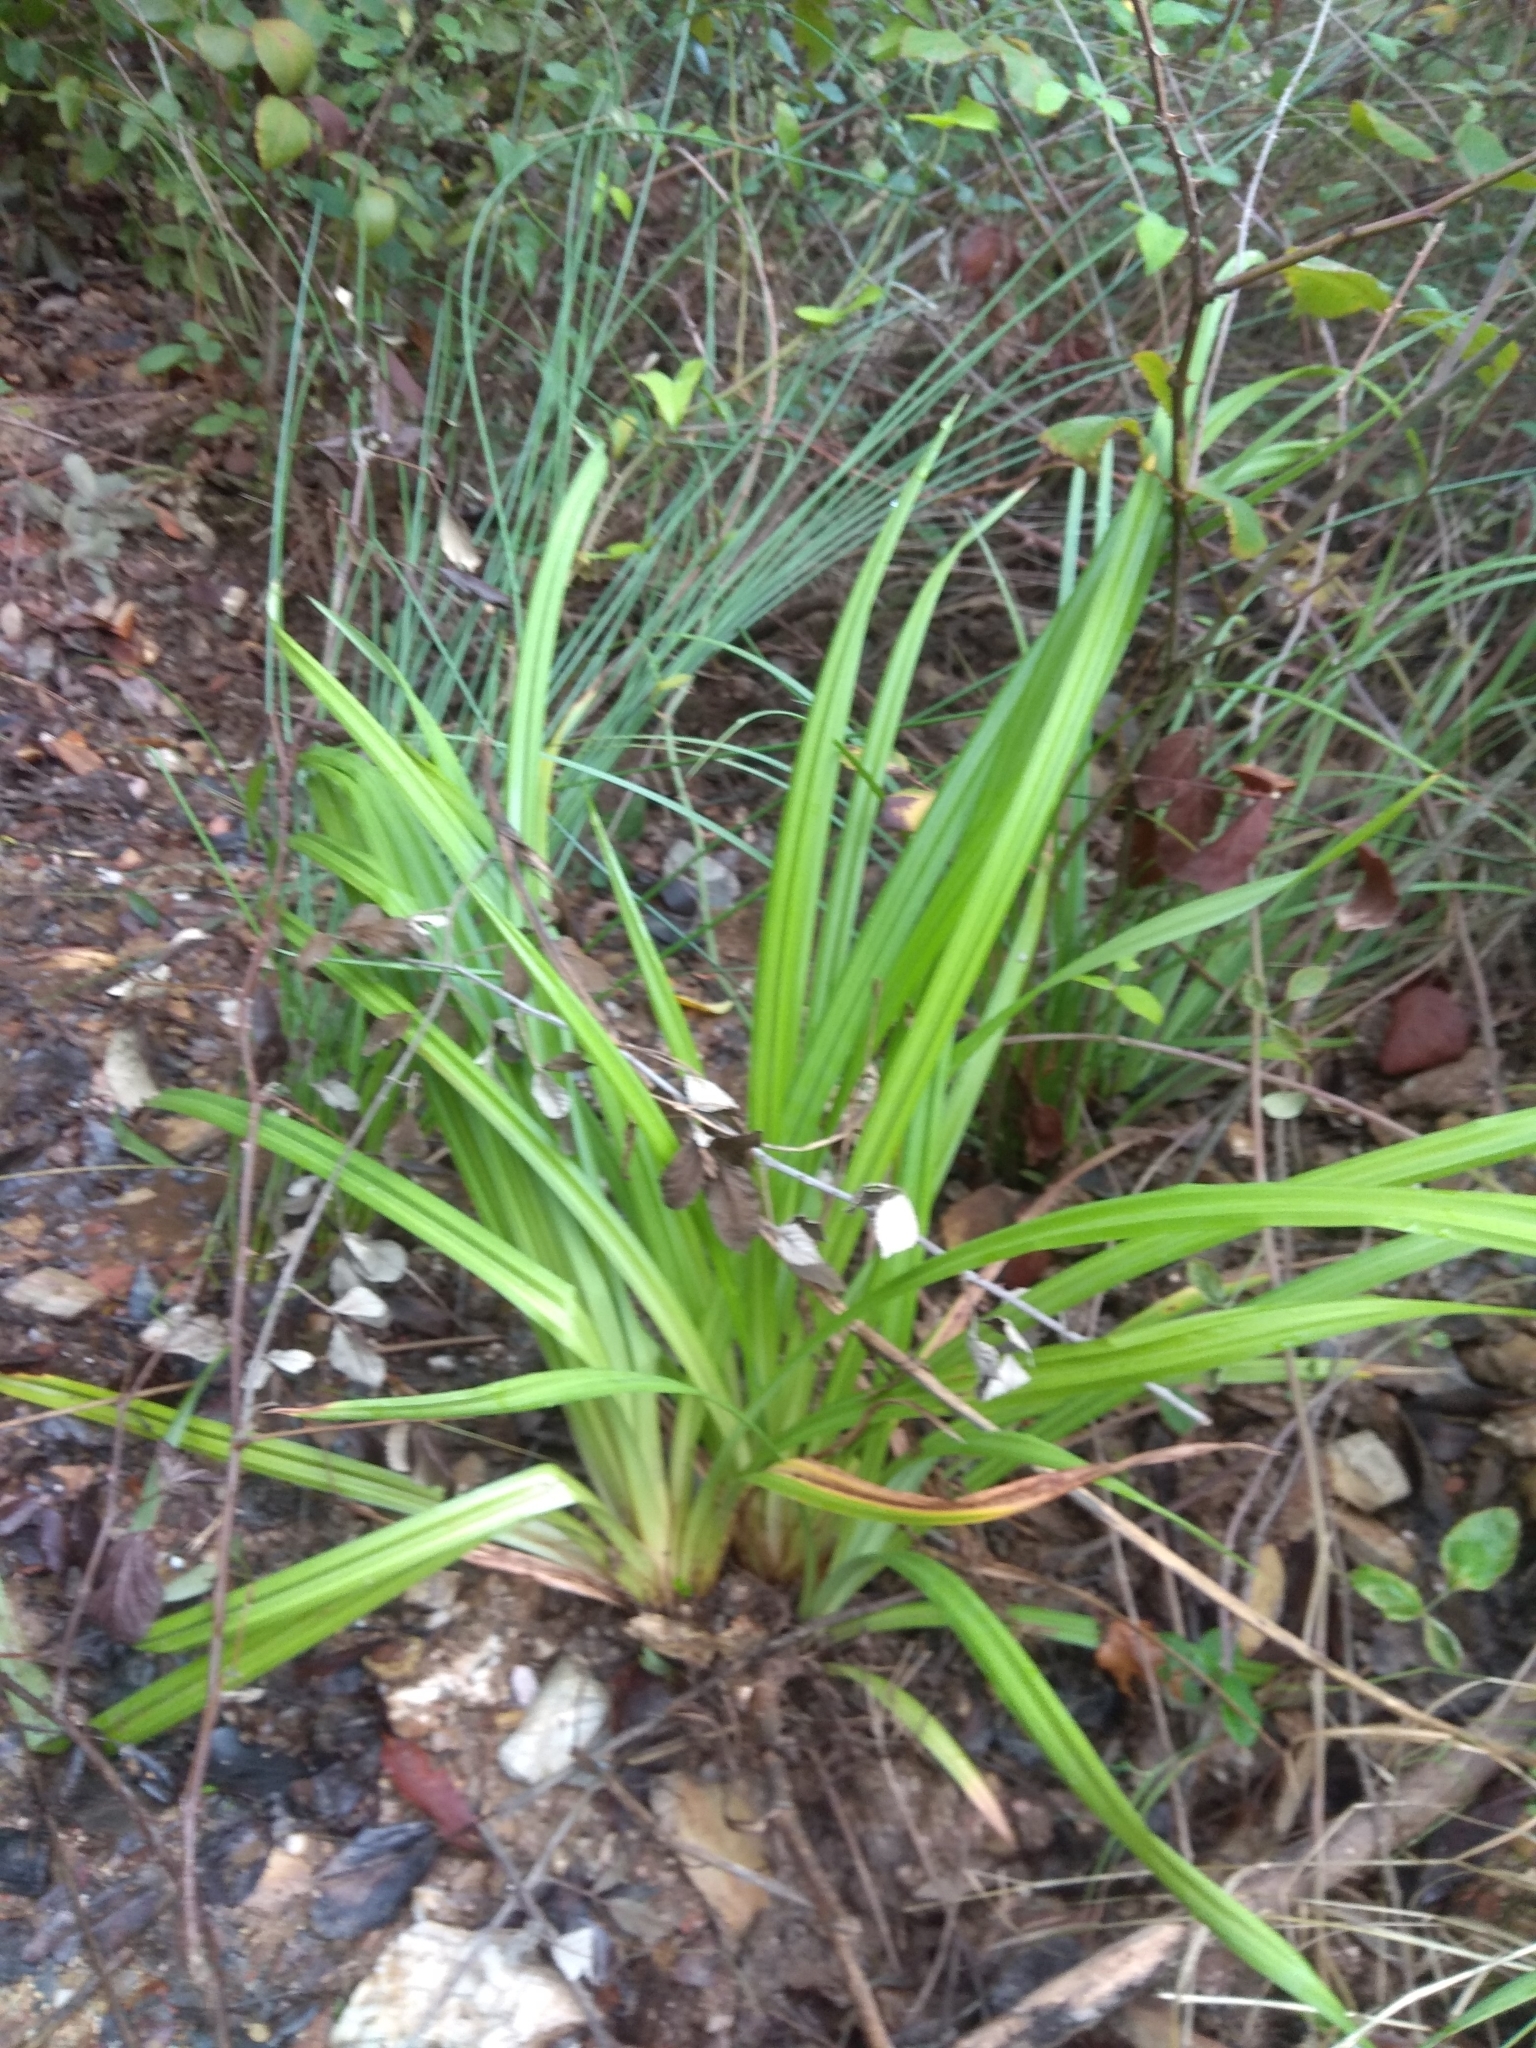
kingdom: Plantae
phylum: Tracheophyta
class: Liliopsida
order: Poales
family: Cyperaceae
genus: Carex
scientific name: Carex pendula
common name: Pendulous sedge
